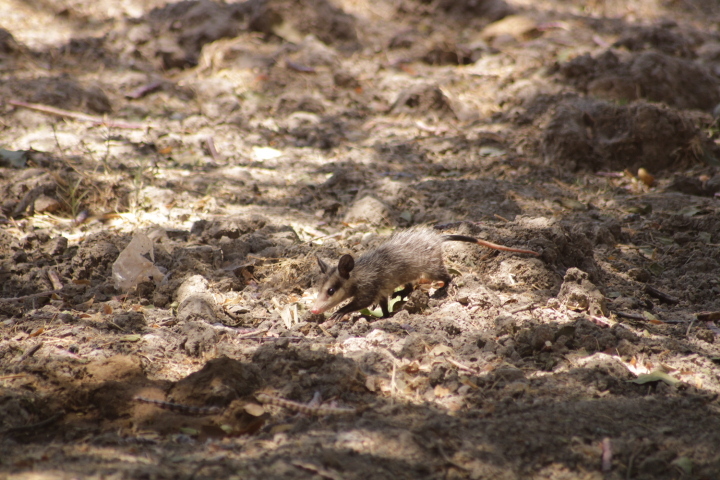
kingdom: Animalia
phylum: Chordata
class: Mammalia
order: Didelphimorphia
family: Didelphidae
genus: Didelphis
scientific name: Didelphis virginiana
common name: Virginia opossum
